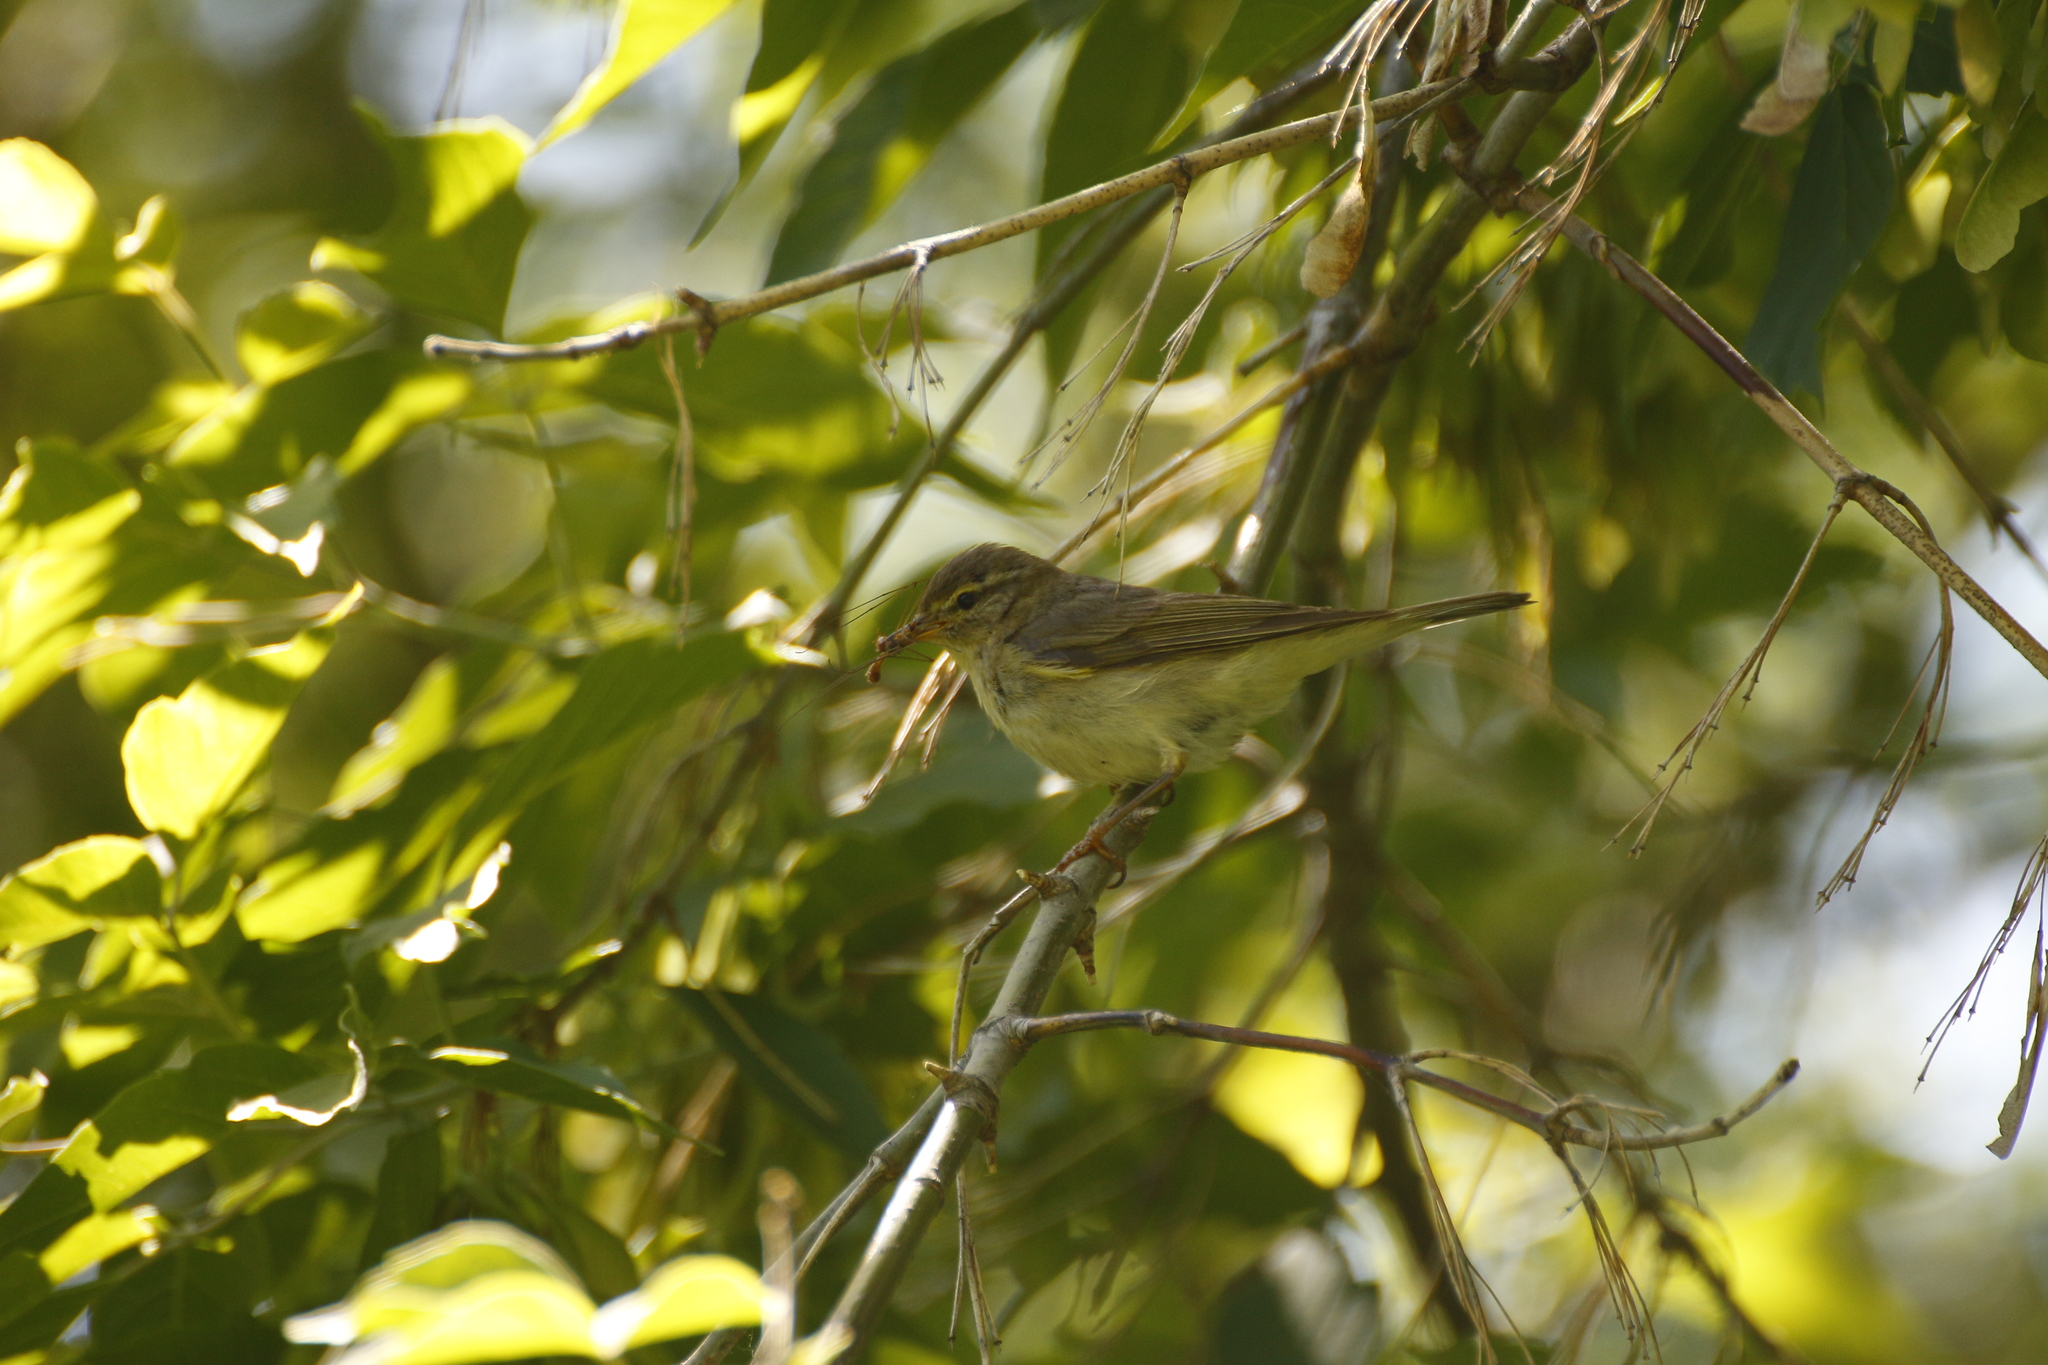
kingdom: Animalia
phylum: Chordata
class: Aves
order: Passeriformes
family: Phylloscopidae
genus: Phylloscopus
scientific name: Phylloscopus trochilus
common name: Willow warbler
